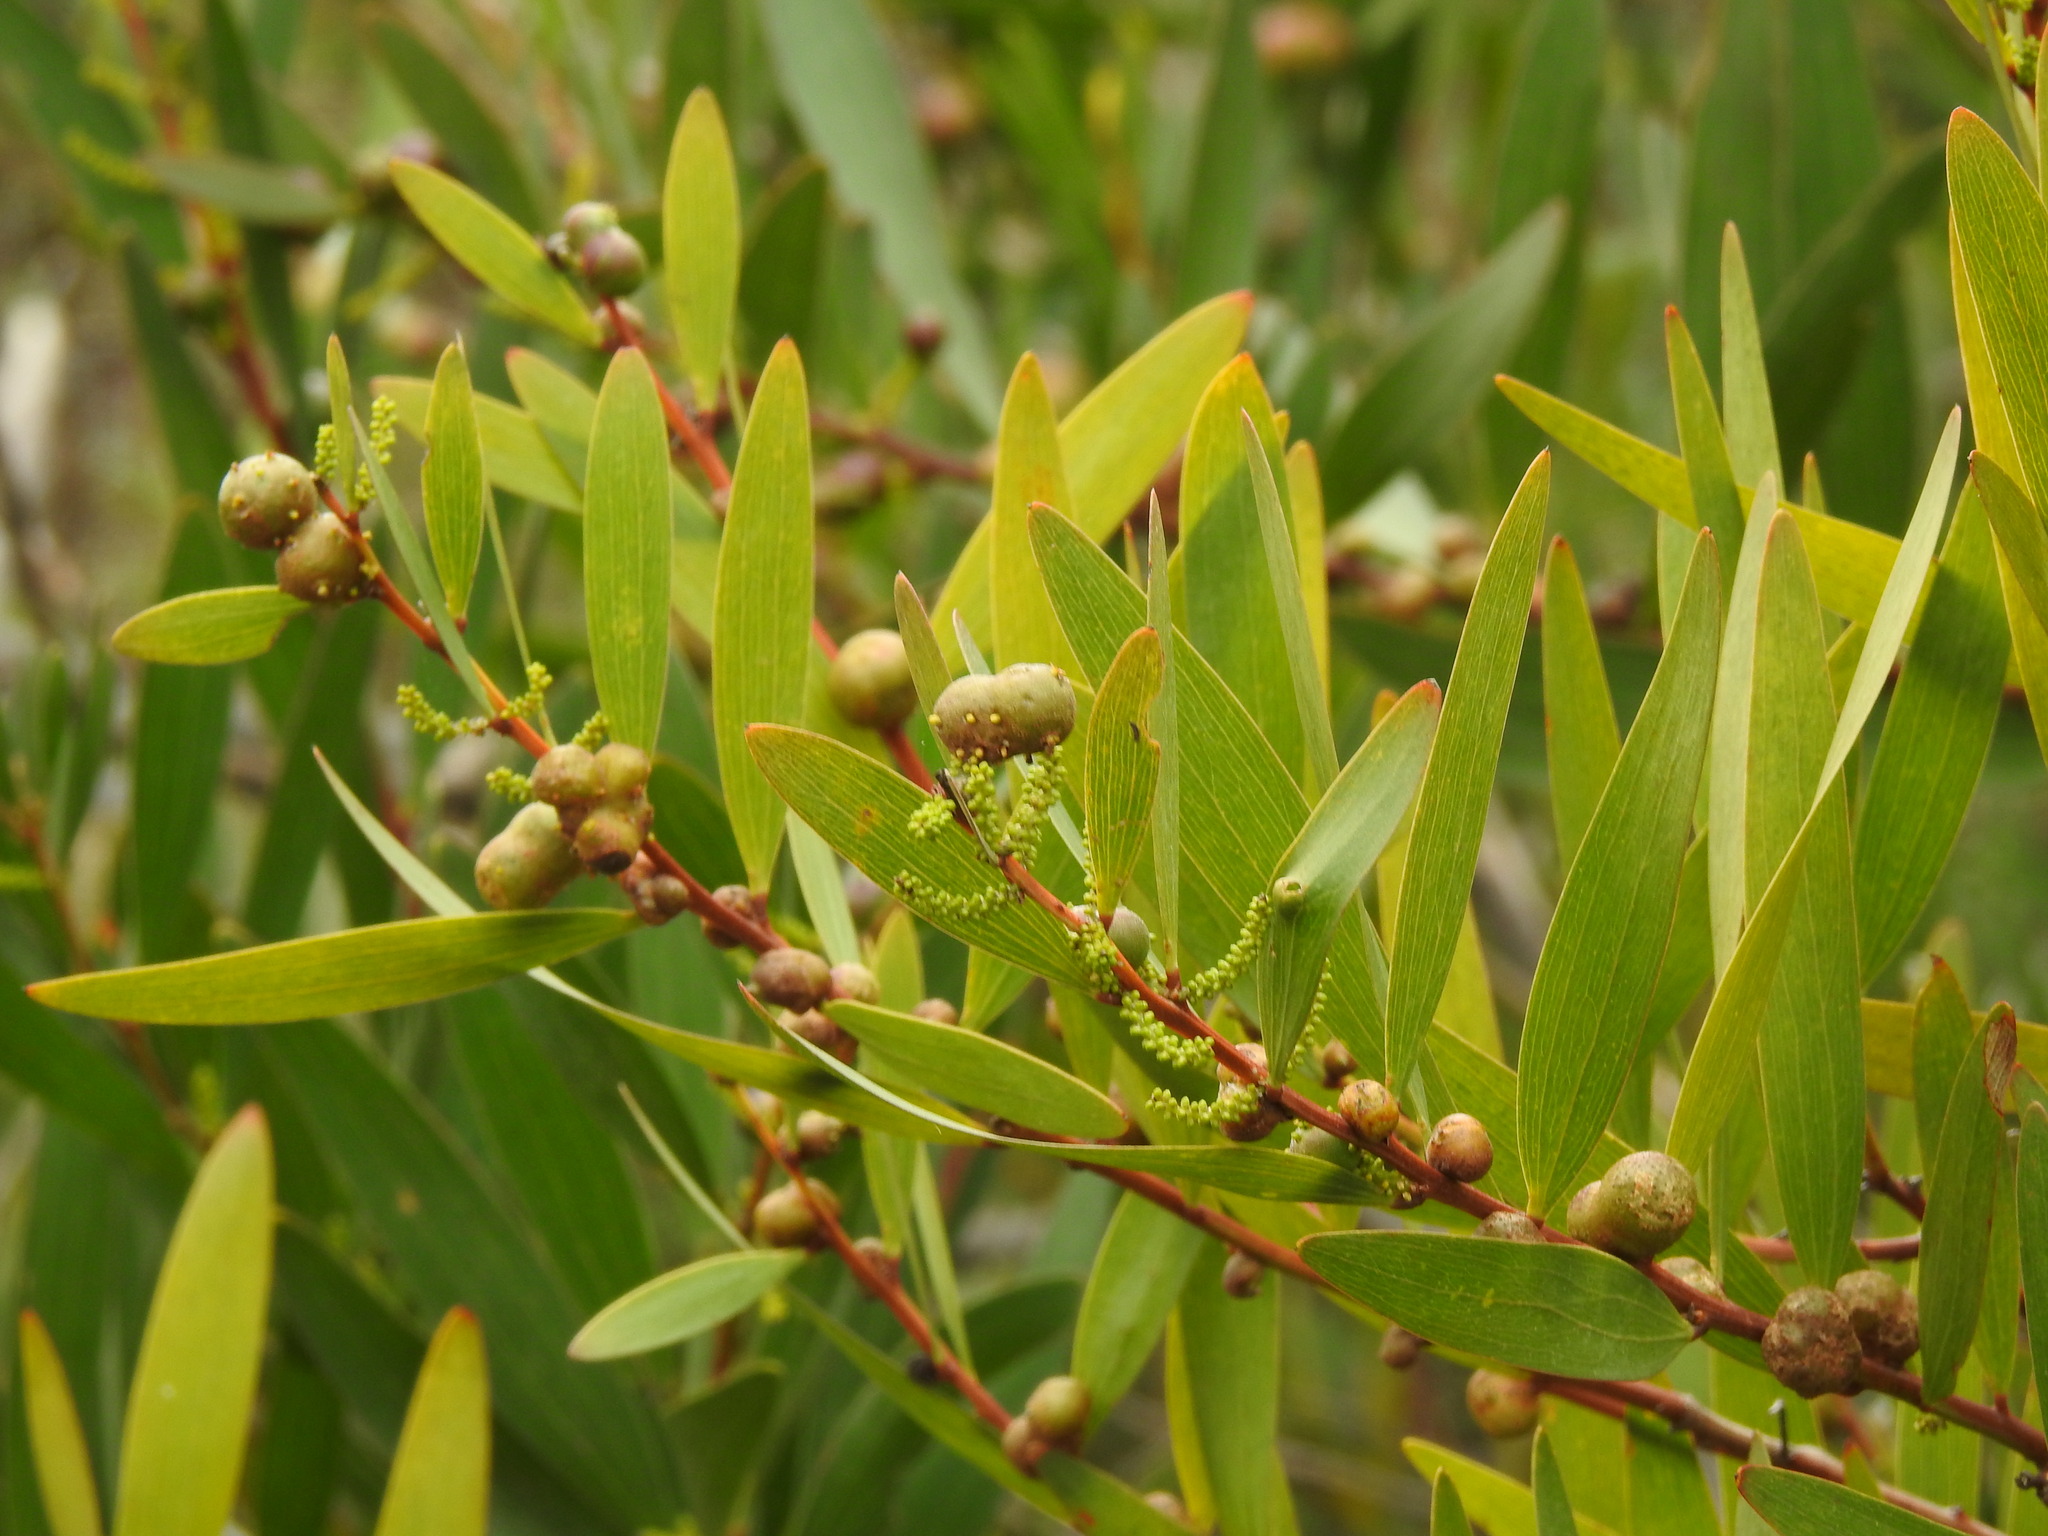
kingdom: Plantae
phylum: Tracheophyta
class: Magnoliopsida
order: Fabales
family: Fabaceae
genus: Acacia
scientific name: Acacia longifolia
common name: Sydney golden wattle
